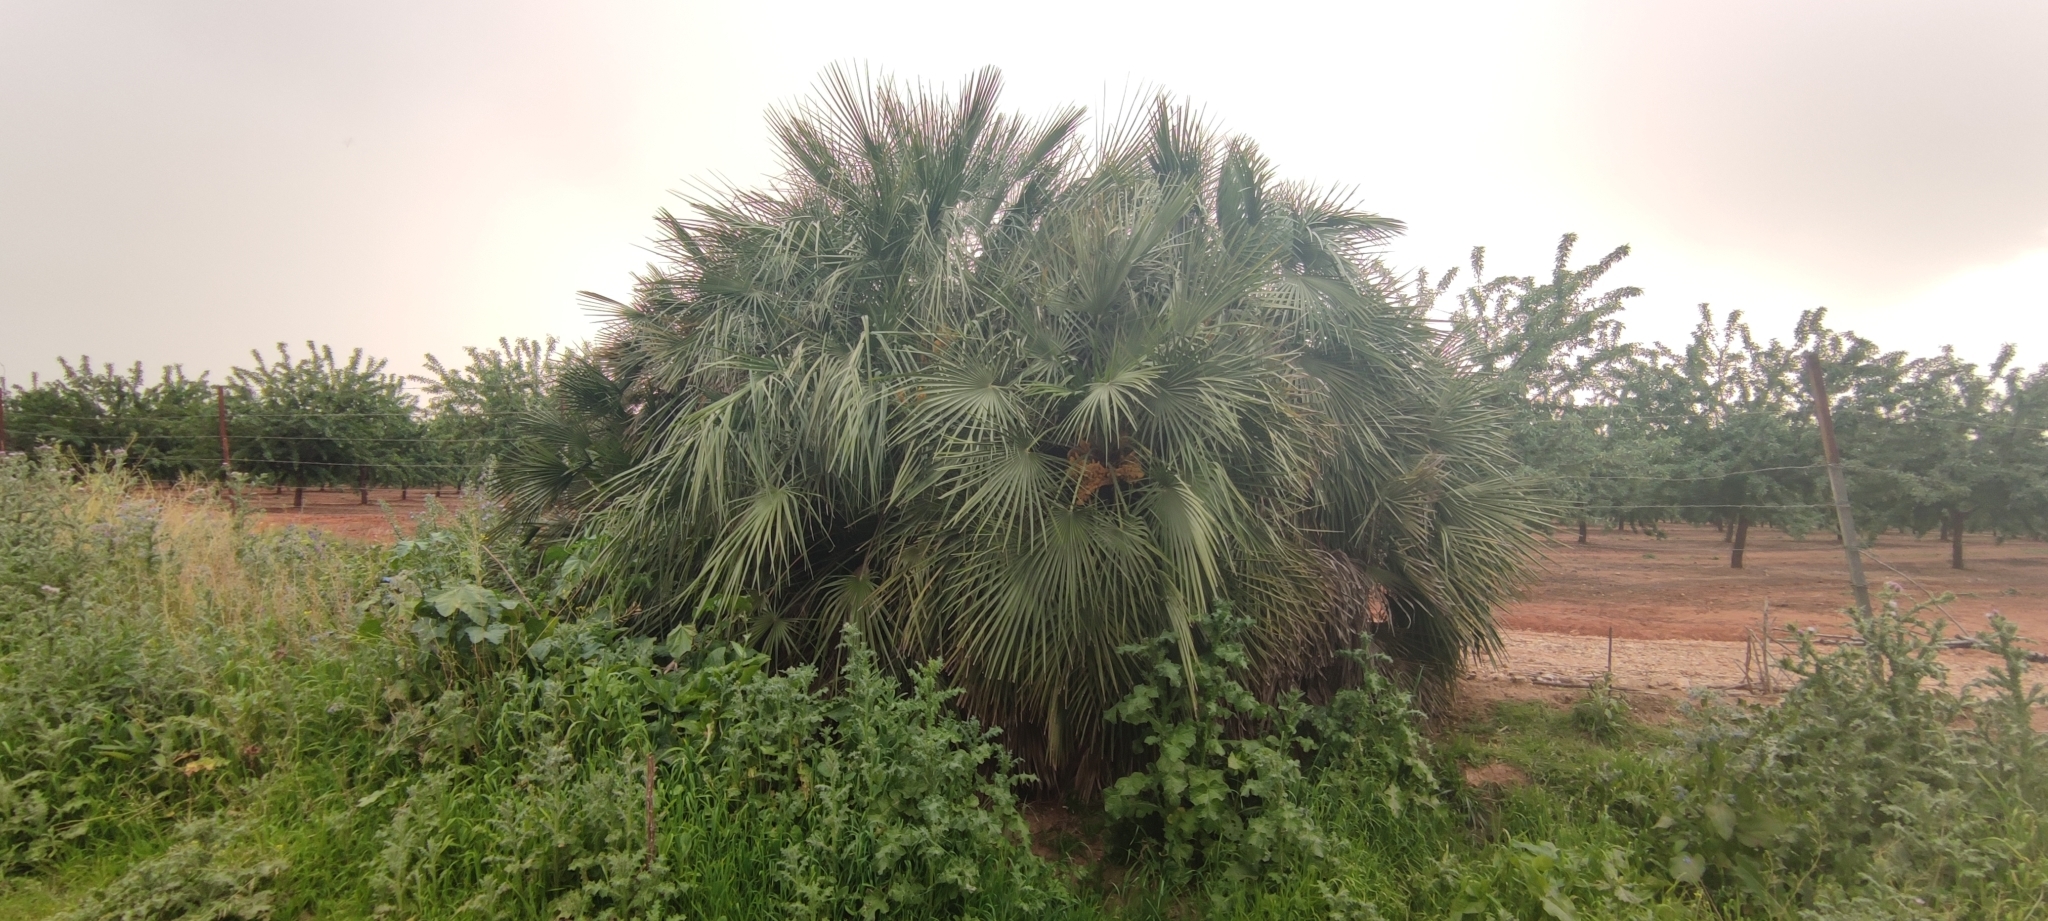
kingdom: Plantae
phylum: Tracheophyta
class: Liliopsida
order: Arecales
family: Arecaceae
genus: Chamaerops
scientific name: Chamaerops humilis
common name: Dwarf fan palm
